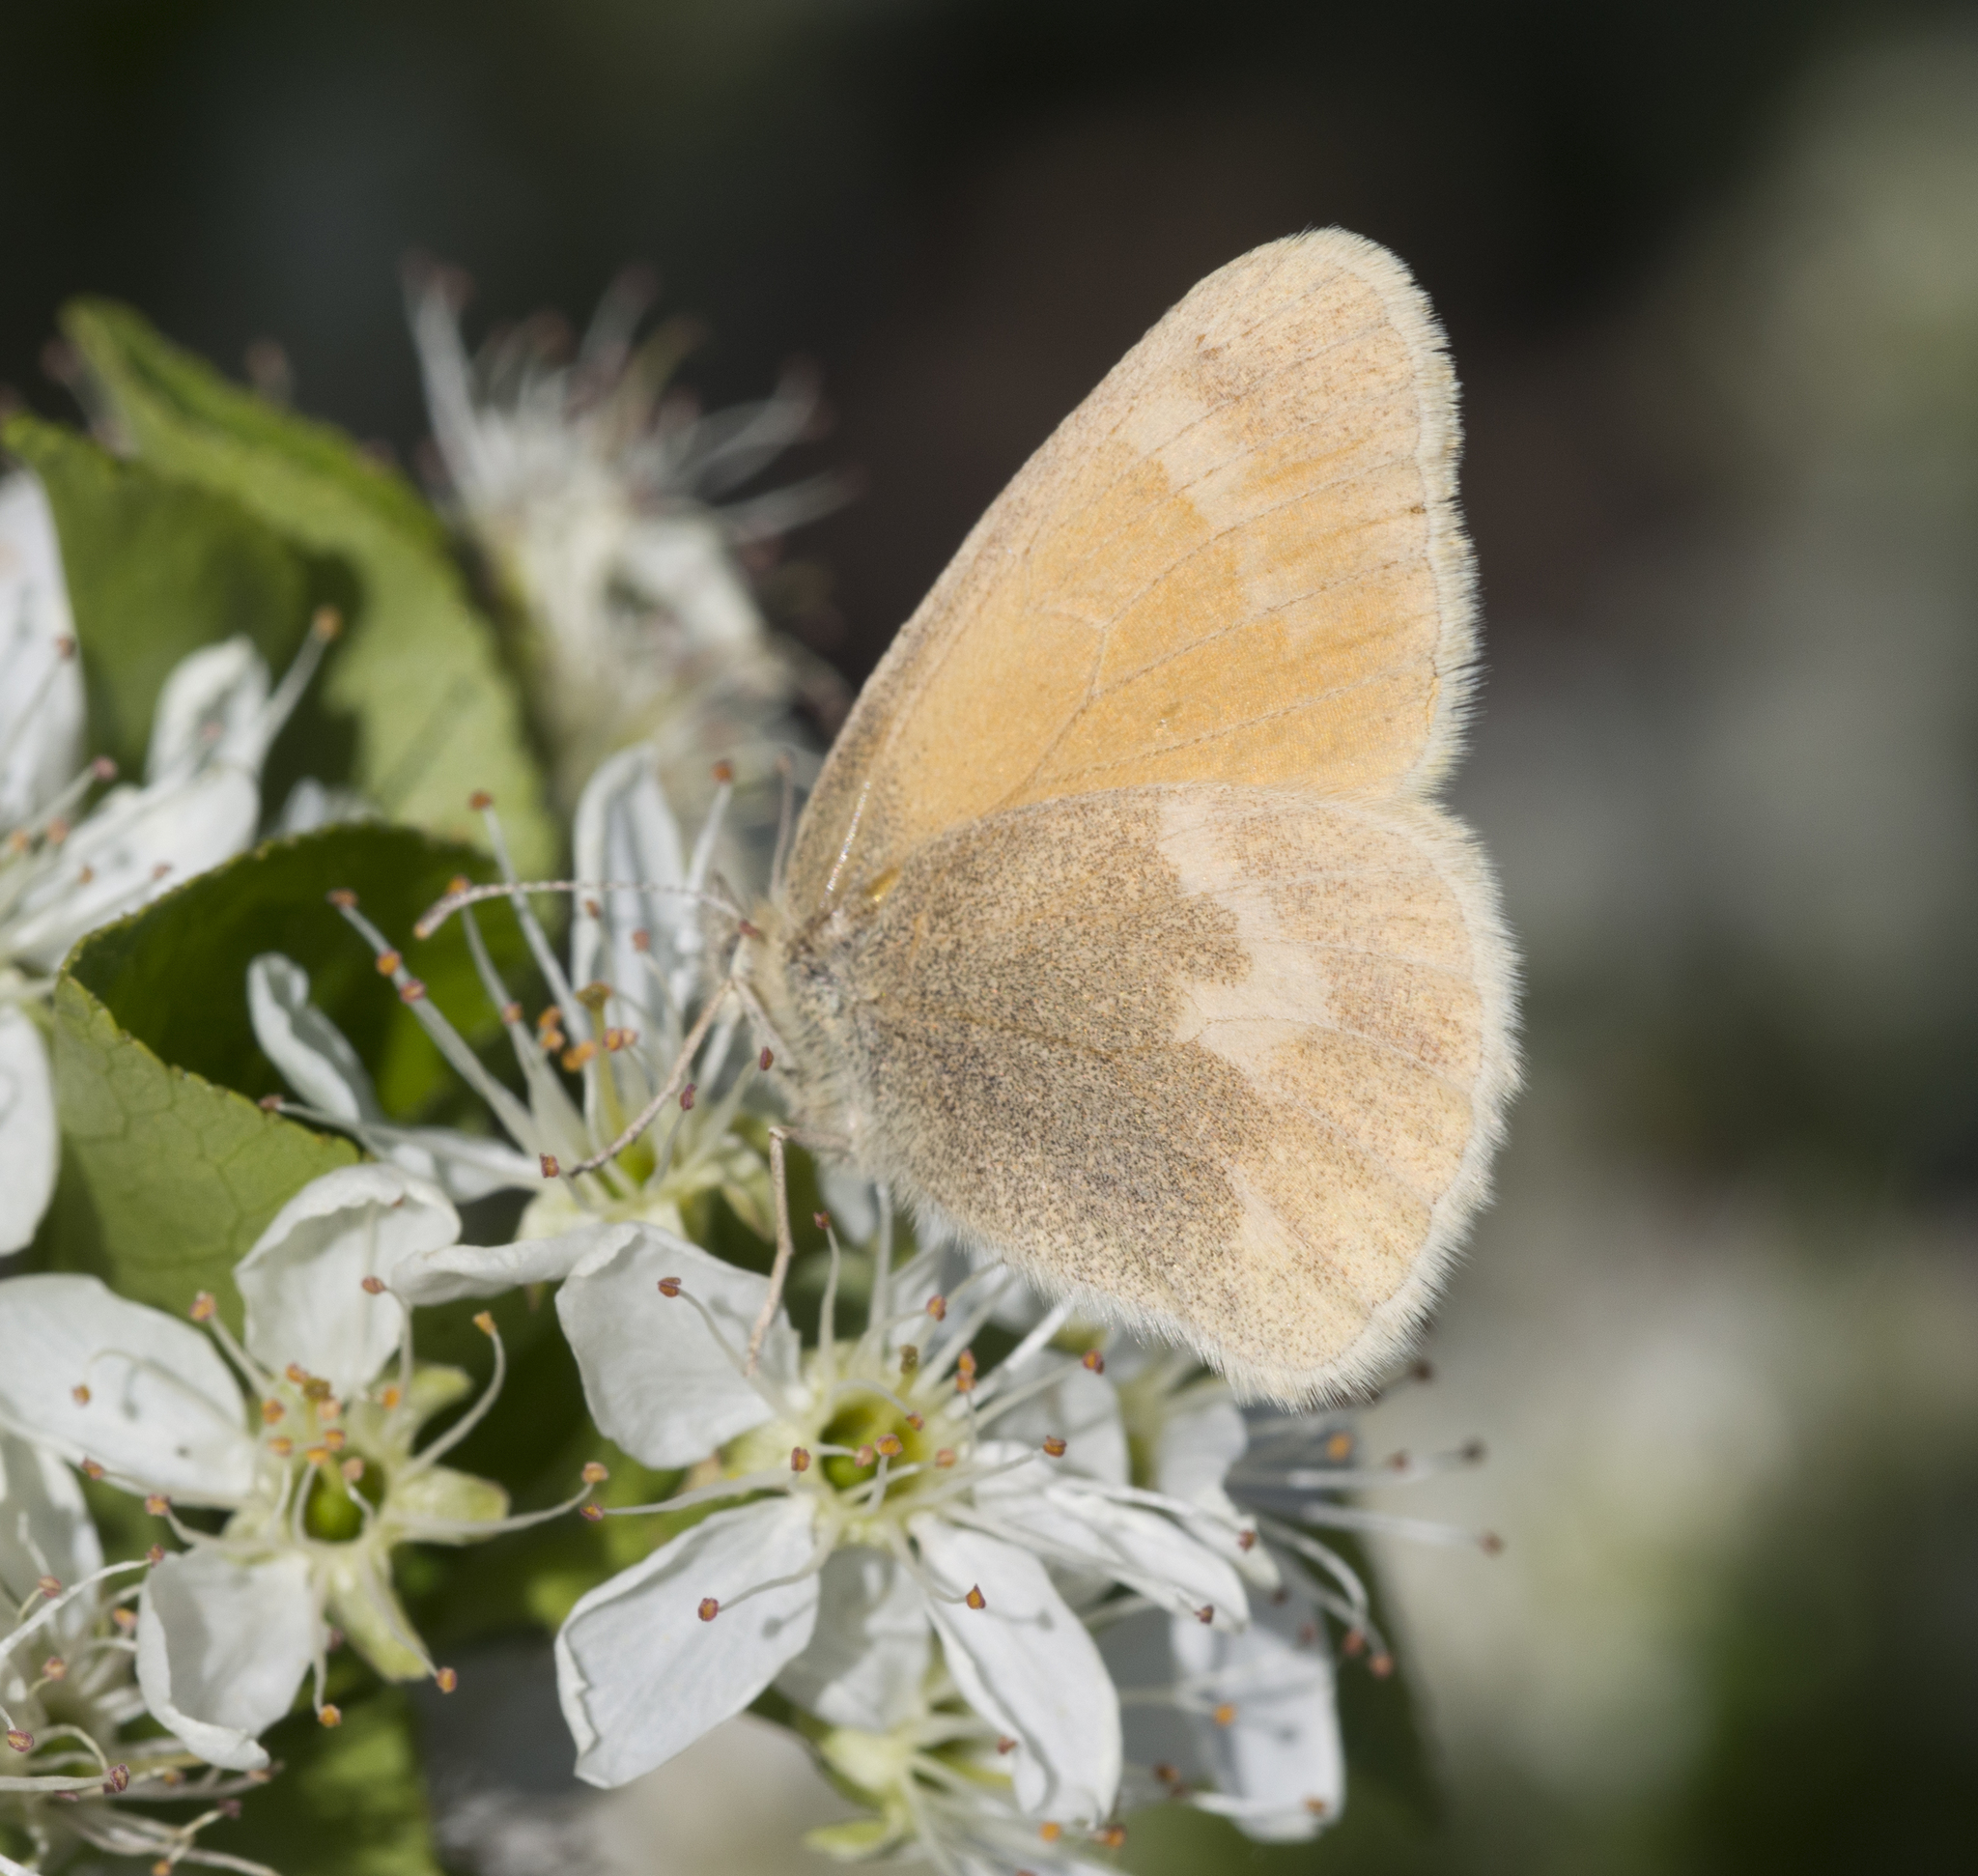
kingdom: Animalia
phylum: Arthropoda
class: Insecta
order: Lepidoptera
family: Nymphalidae
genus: Coenonympha
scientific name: Coenonympha california
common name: Common ringlet
